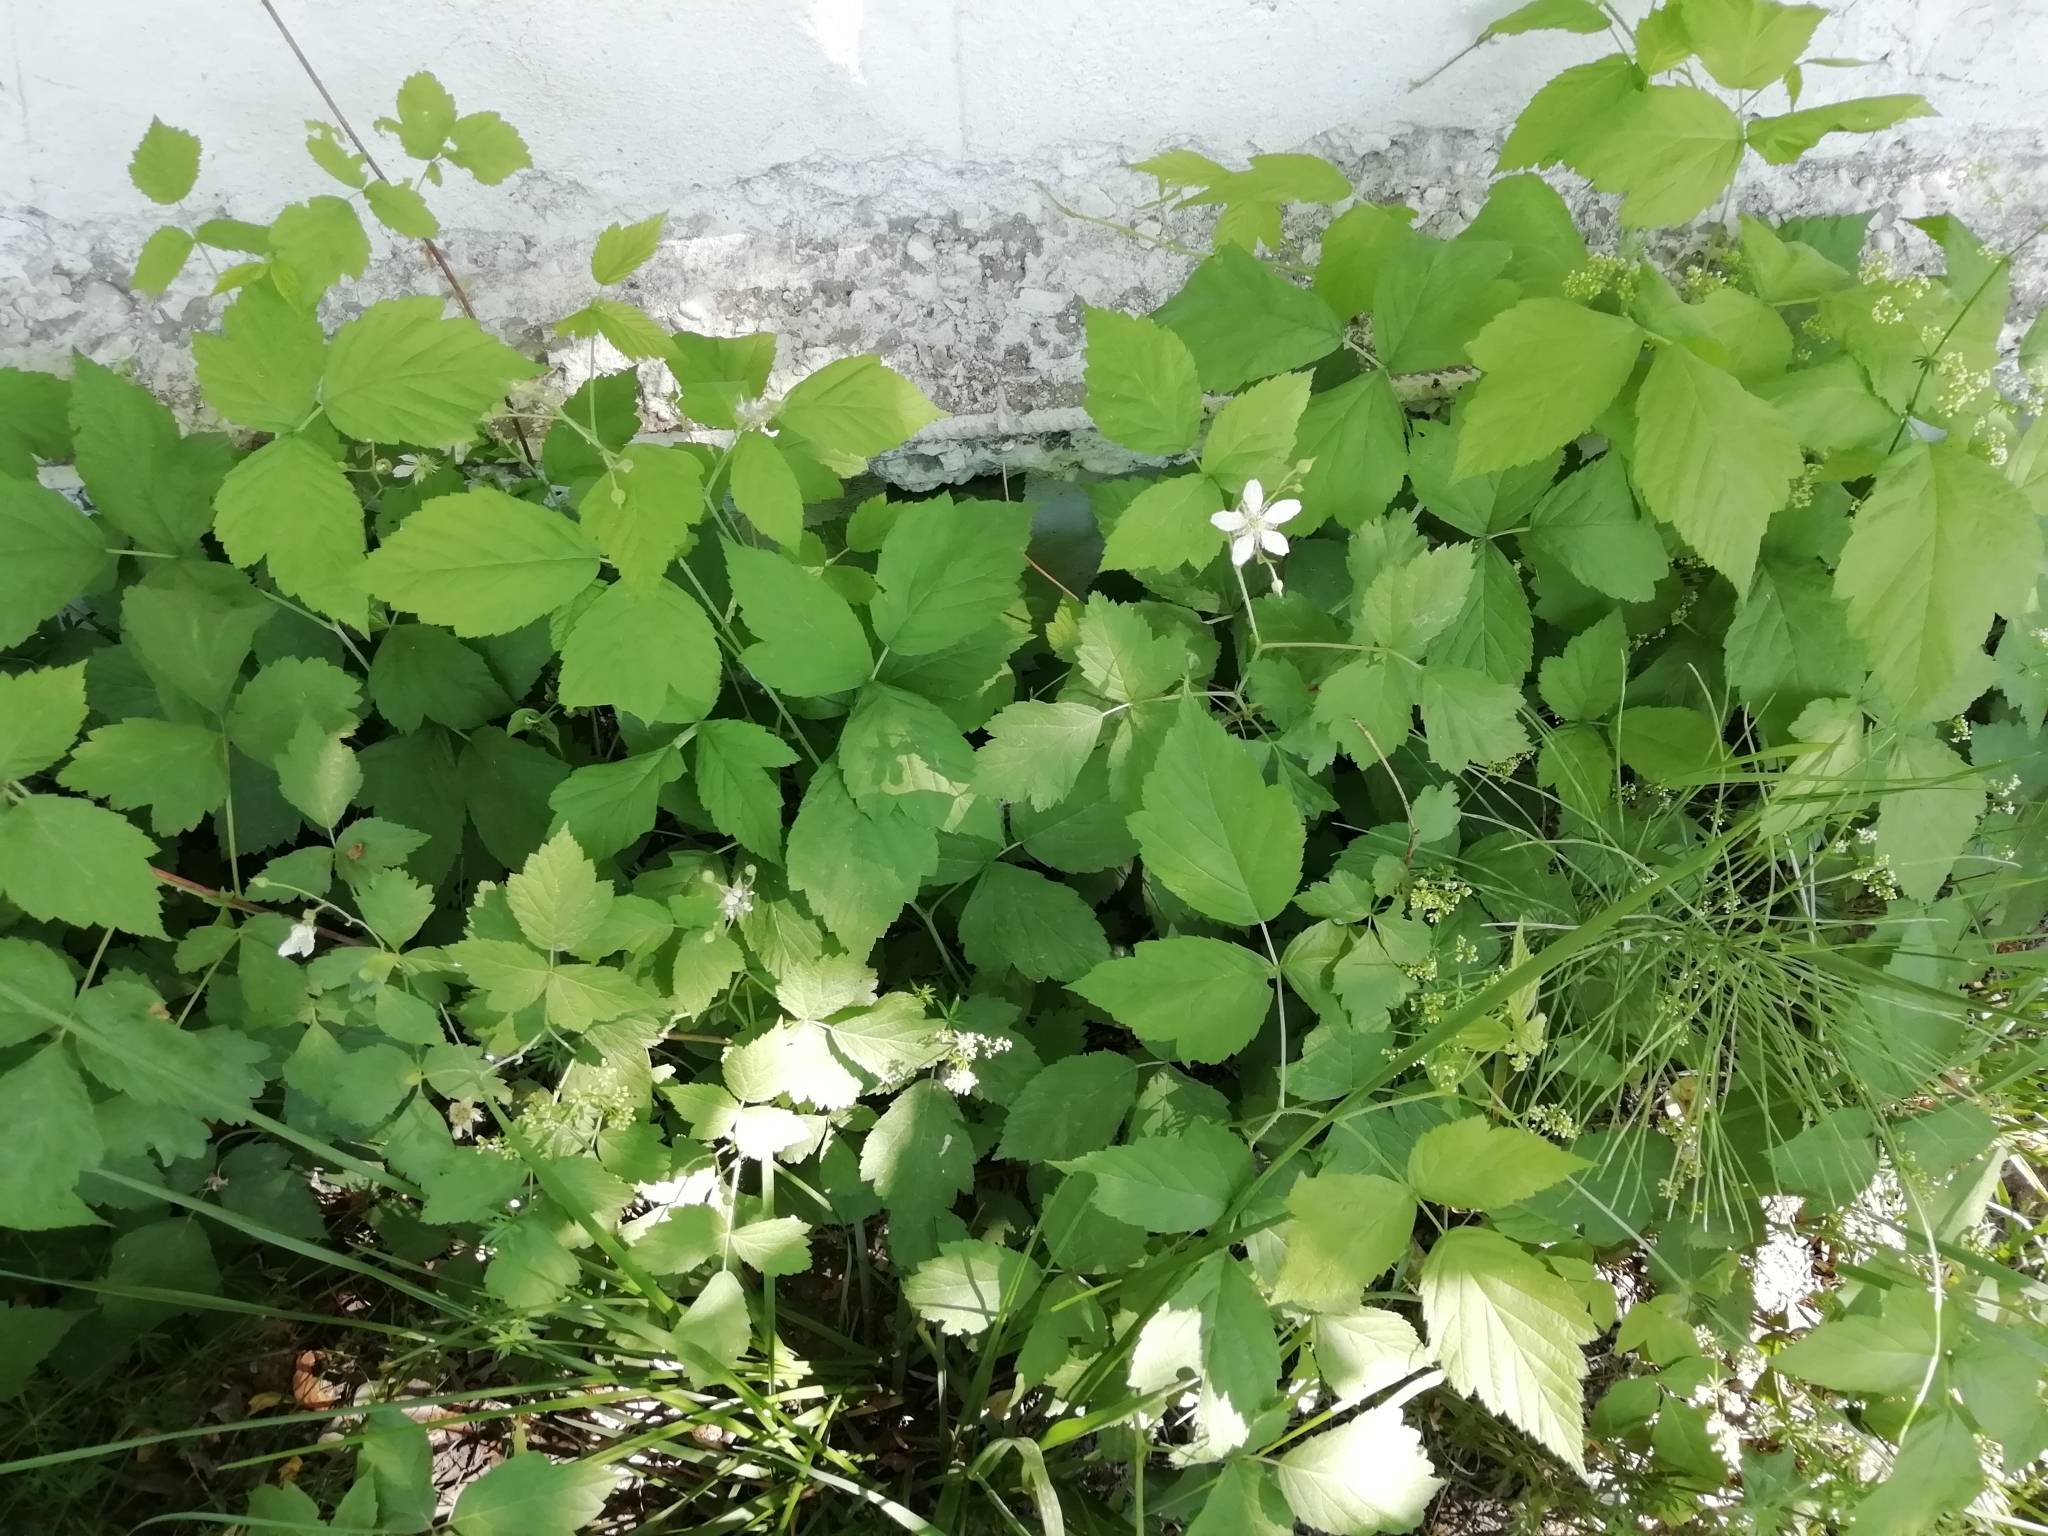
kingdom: Plantae
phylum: Tracheophyta
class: Magnoliopsida
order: Rosales
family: Rosaceae
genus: Rubus
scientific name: Rubus caesius
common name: Dewberry
